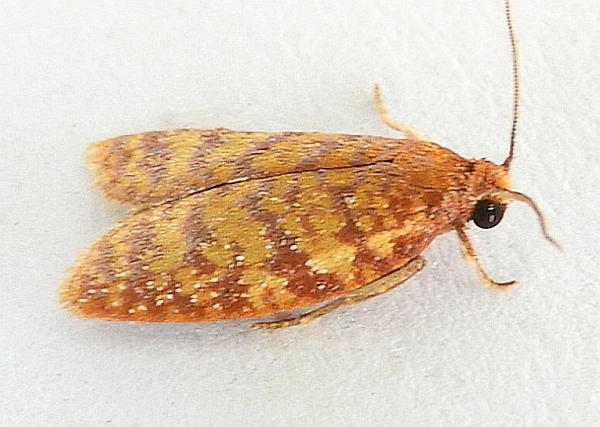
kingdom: Animalia
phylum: Arthropoda
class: Insecta
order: Lepidoptera
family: Tortricidae
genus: Sparganothis
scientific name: Sparganothis niteolinea
